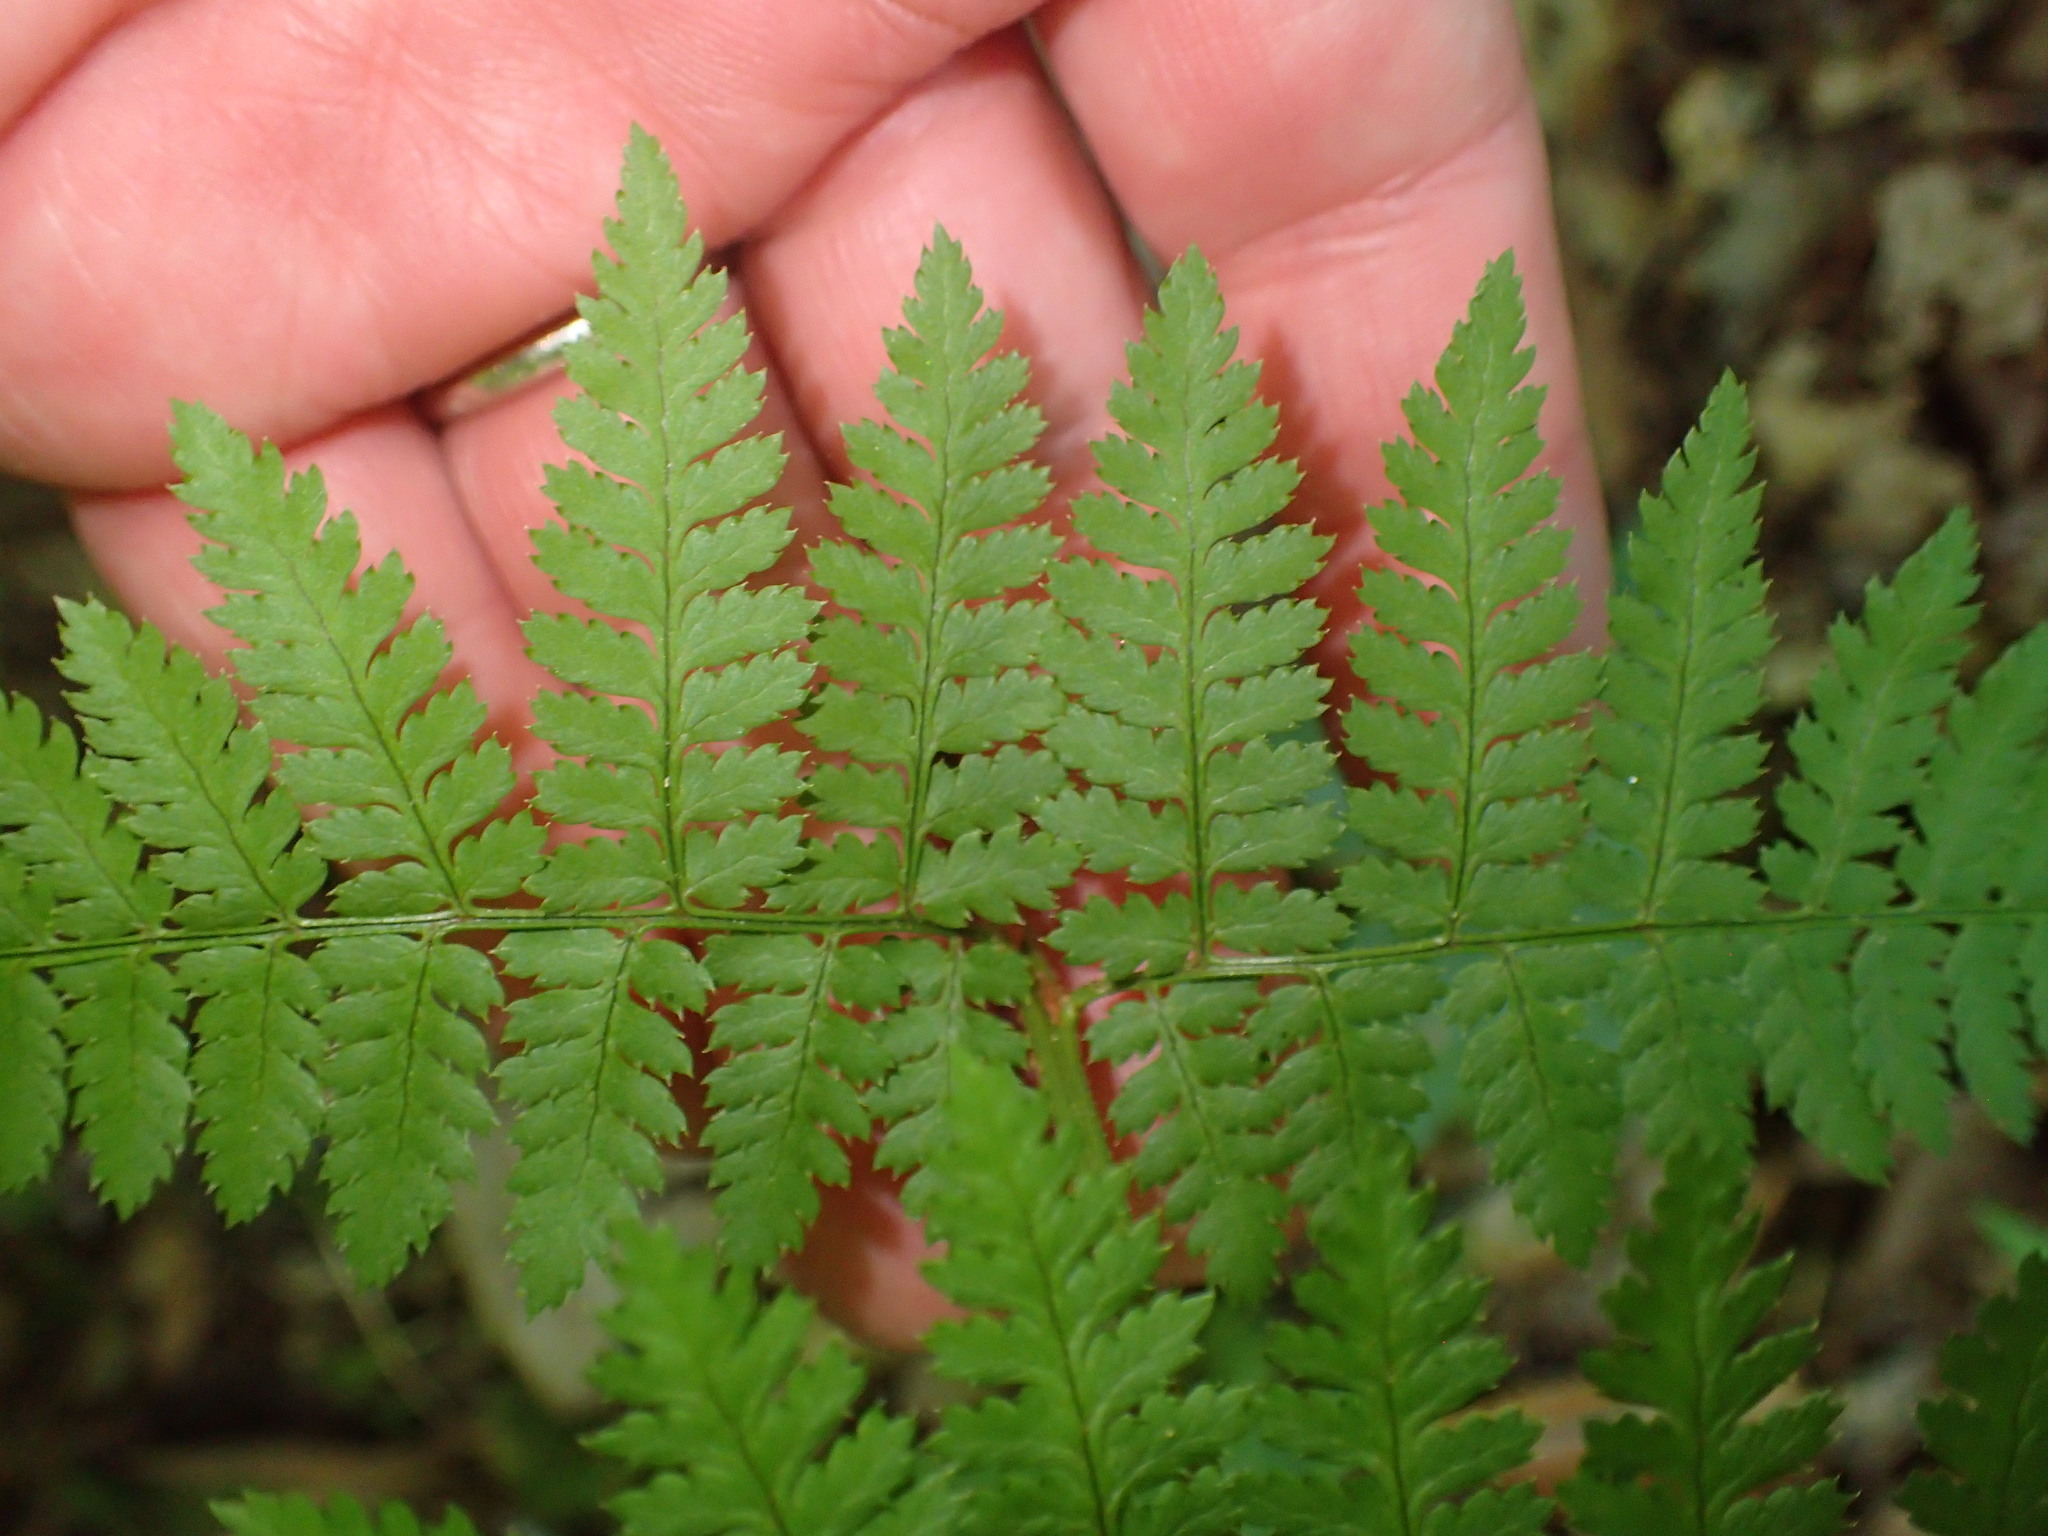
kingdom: Plantae
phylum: Tracheophyta
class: Polypodiopsida
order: Polypodiales
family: Dryopteridaceae
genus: Dryopteris
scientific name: Dryopteris intermedia
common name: Evergreen wood fern
